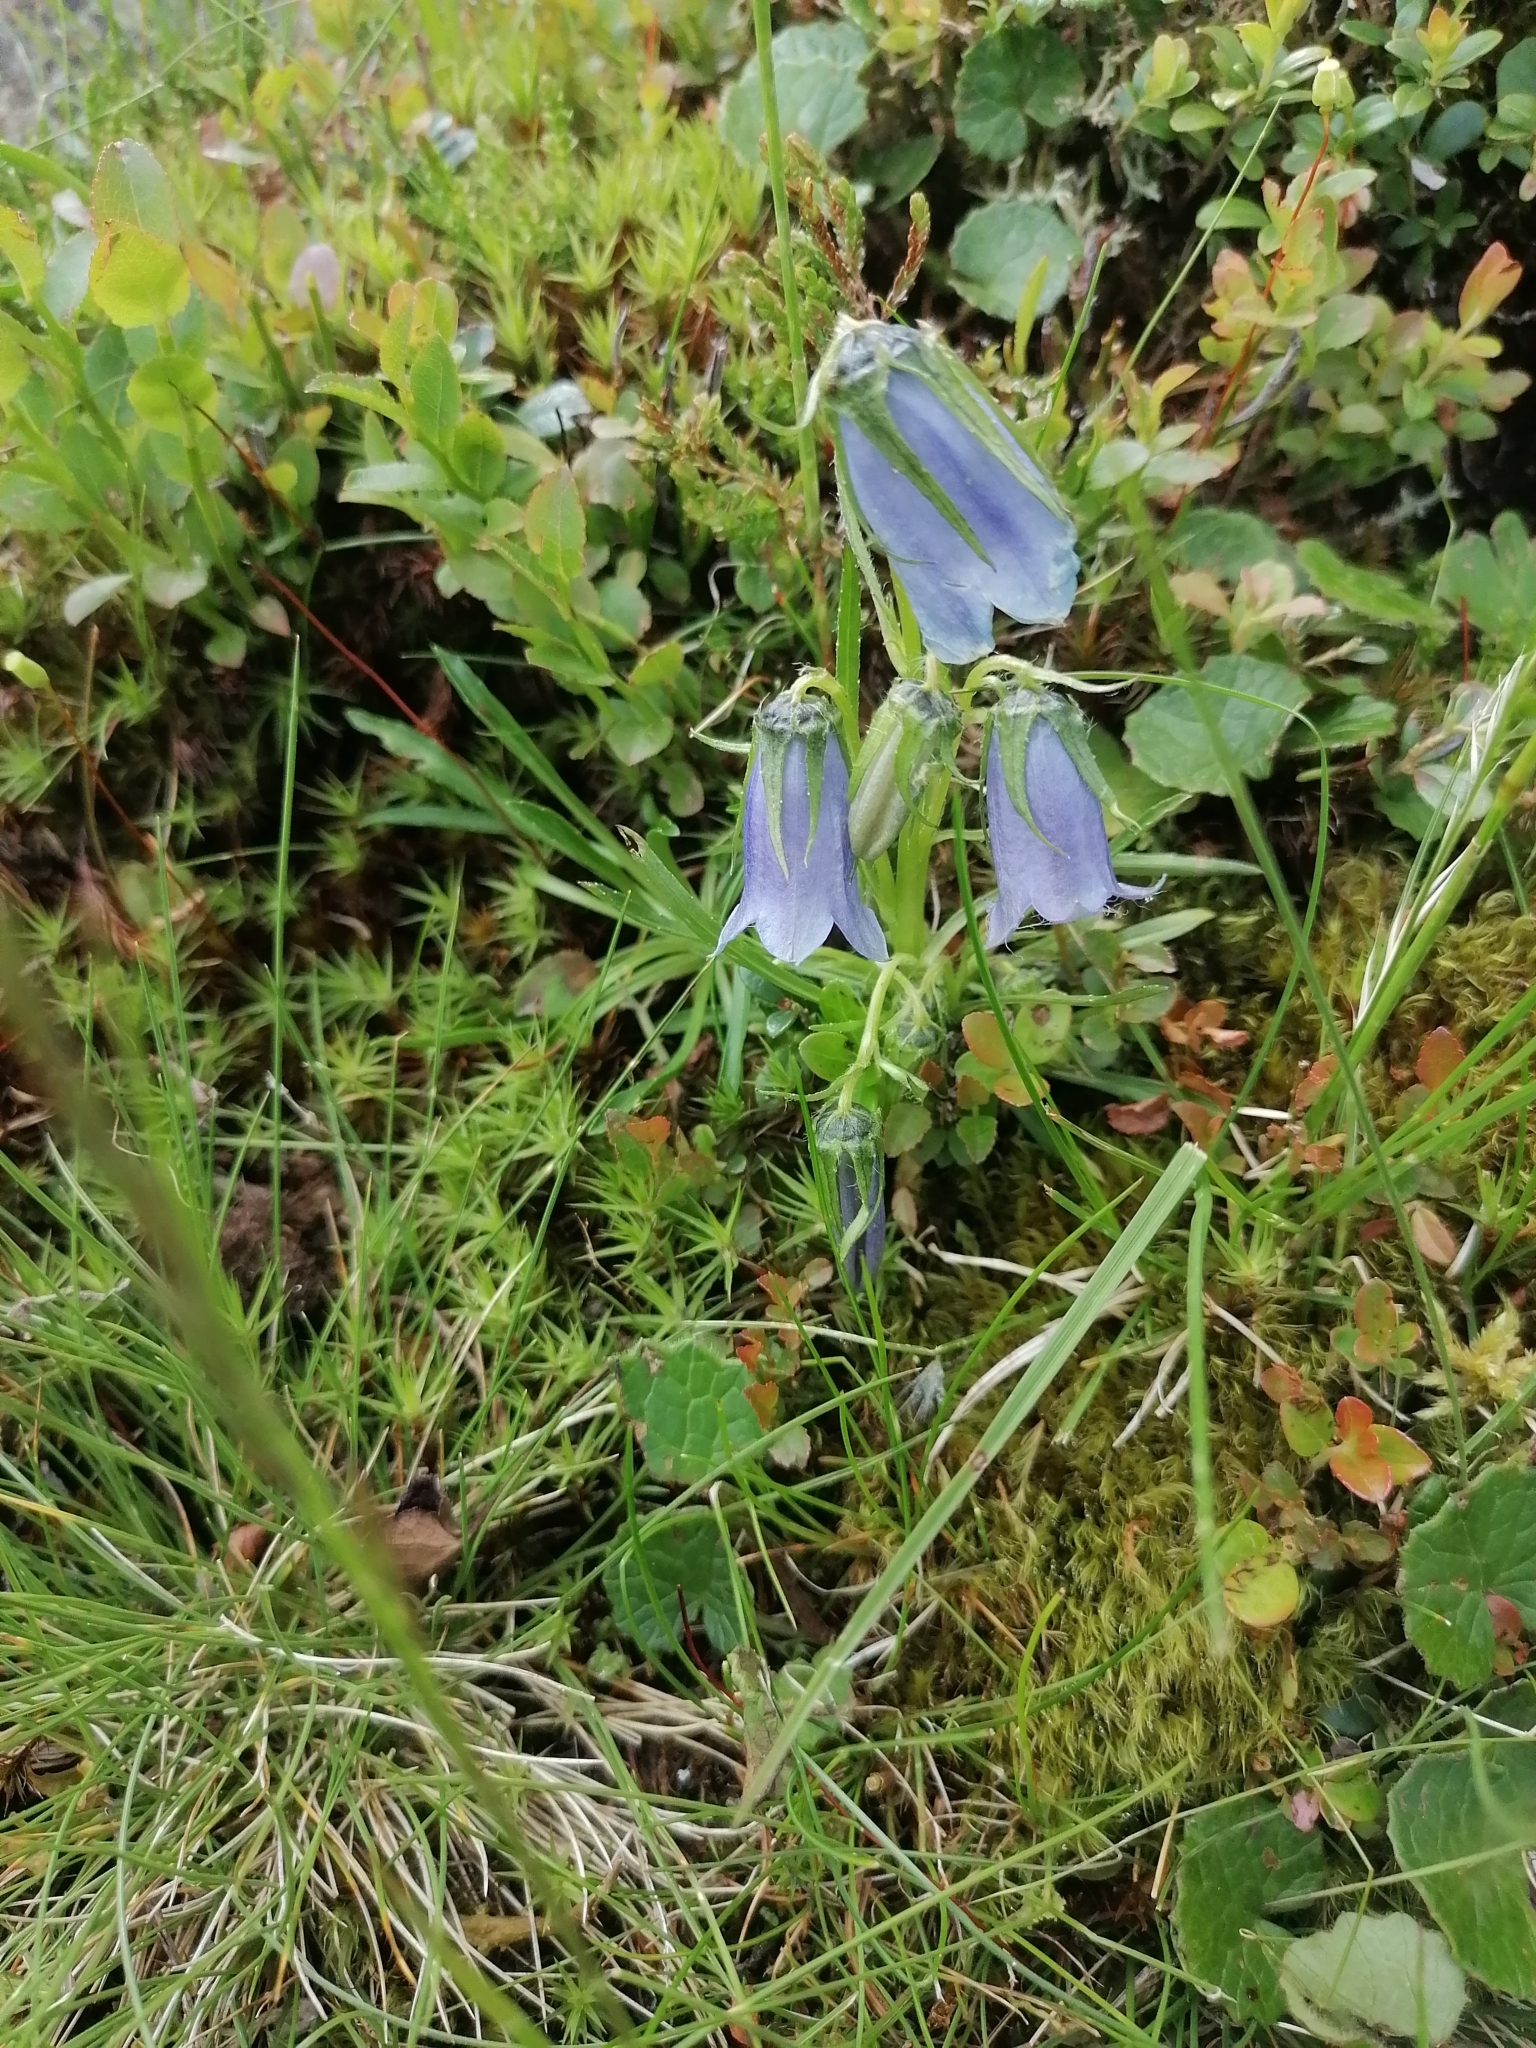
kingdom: Plantae
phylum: Tracheophyta
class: Magnoliopsida
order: Asterales
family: Campanulaceae
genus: Campanula
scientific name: Campanula alpina
